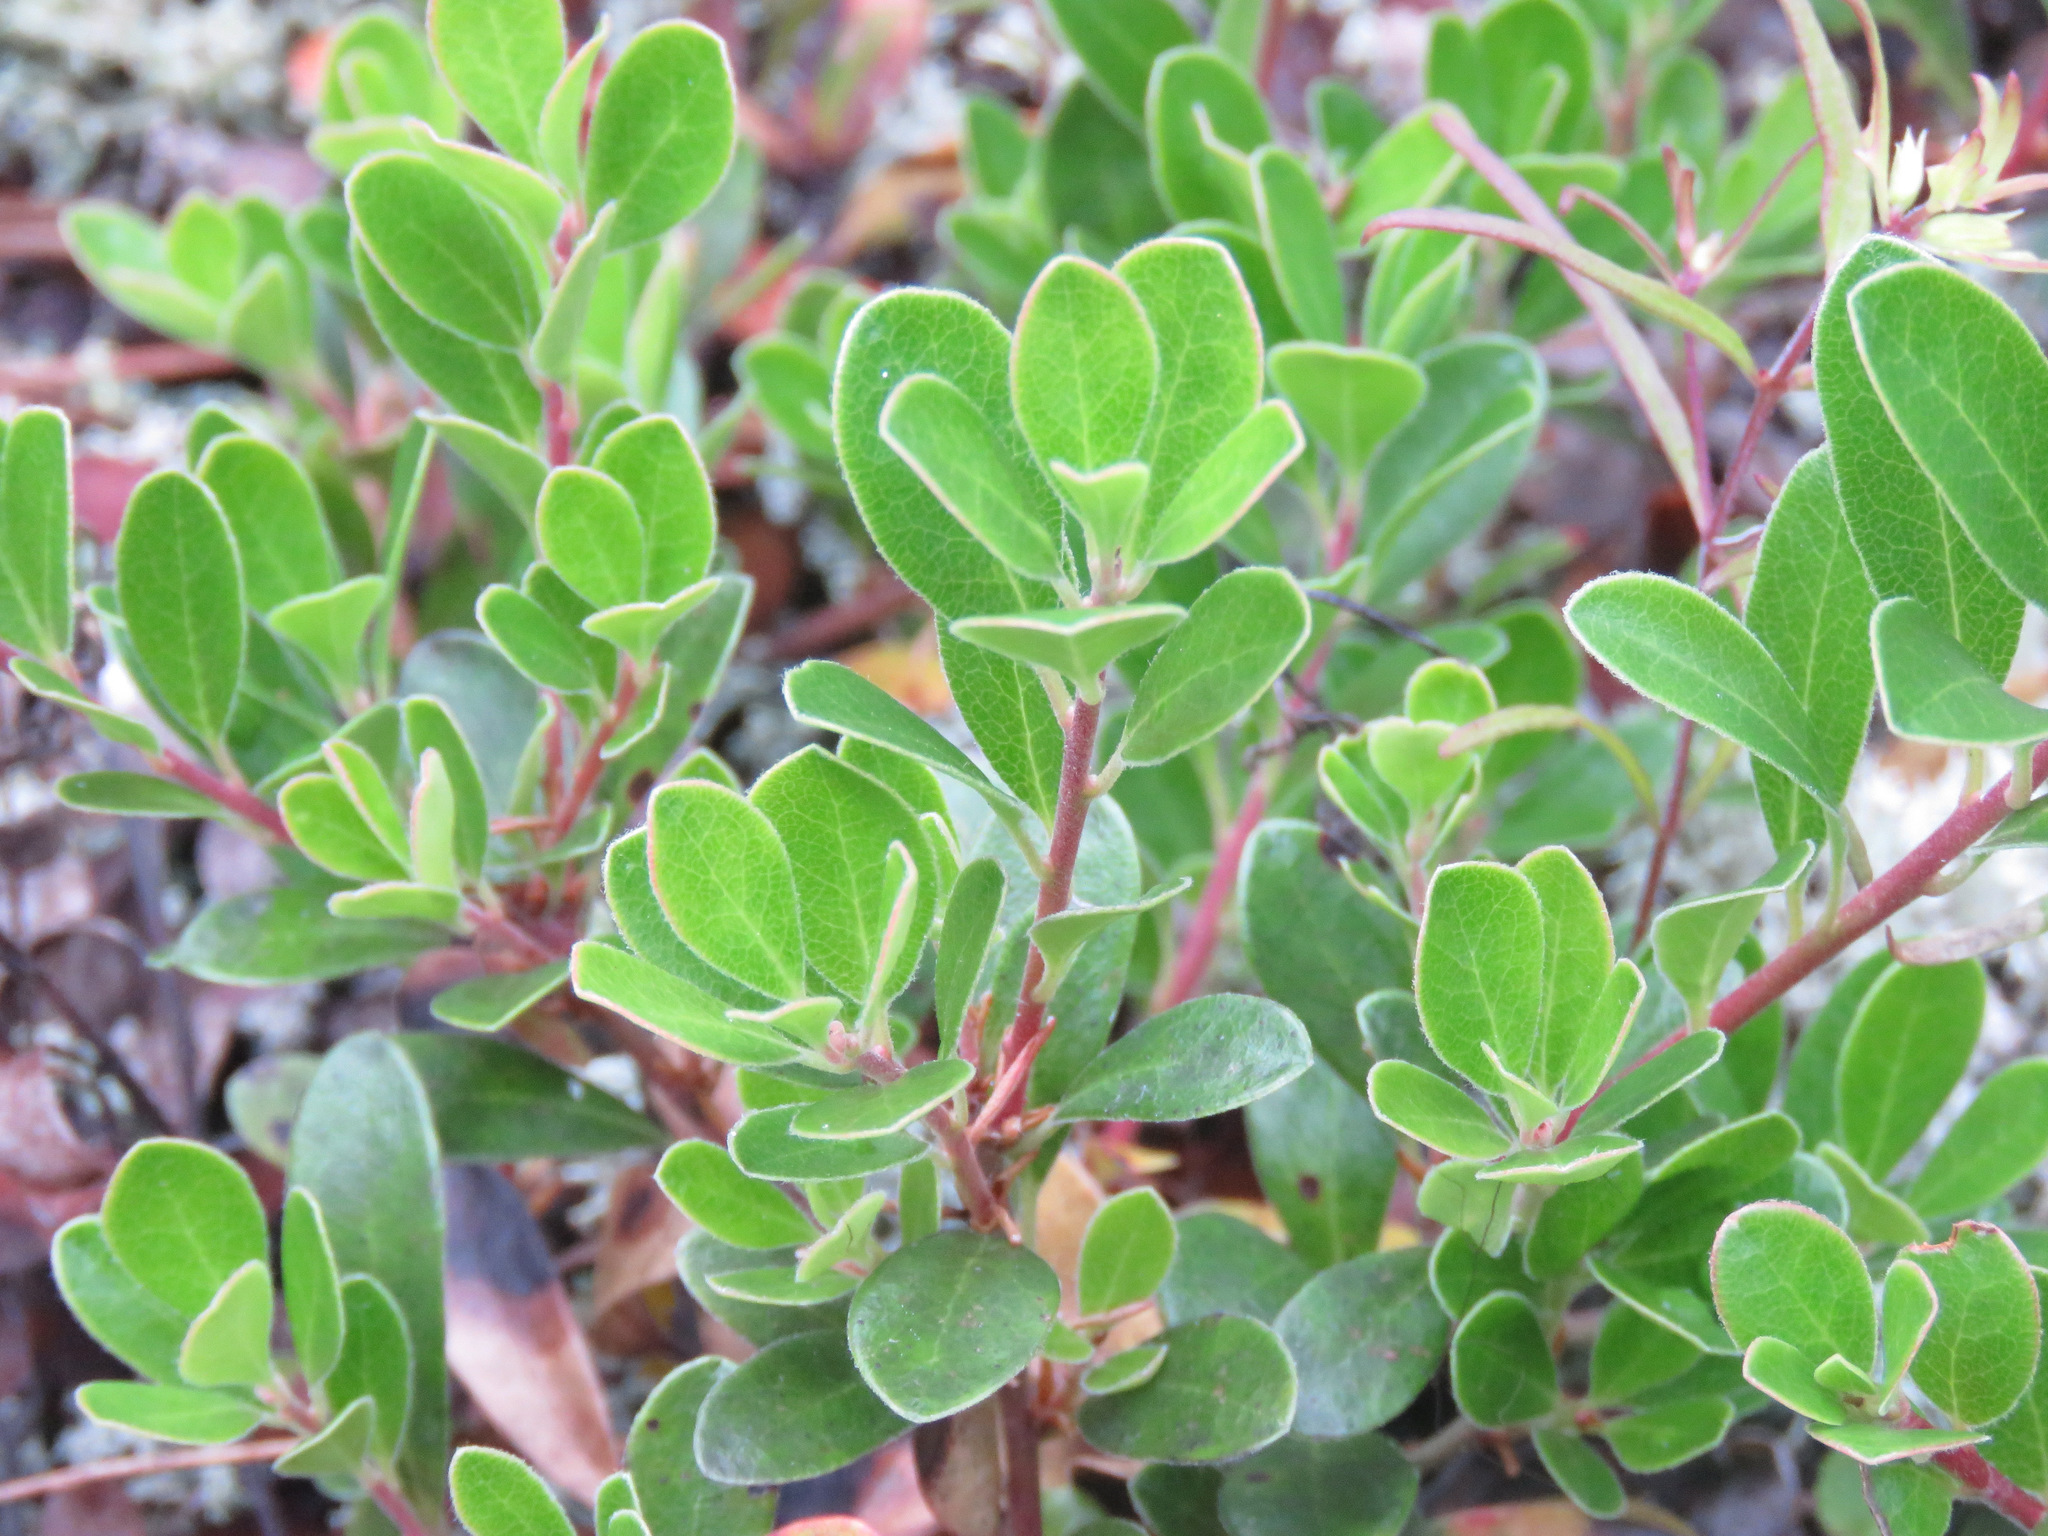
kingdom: Plantae
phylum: Tracheophyta
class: Magnoliopsida
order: Ericales
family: Ericaceae
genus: Arctostaphylos
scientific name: Arctostaphylos uva-ursi
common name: Bearberry
